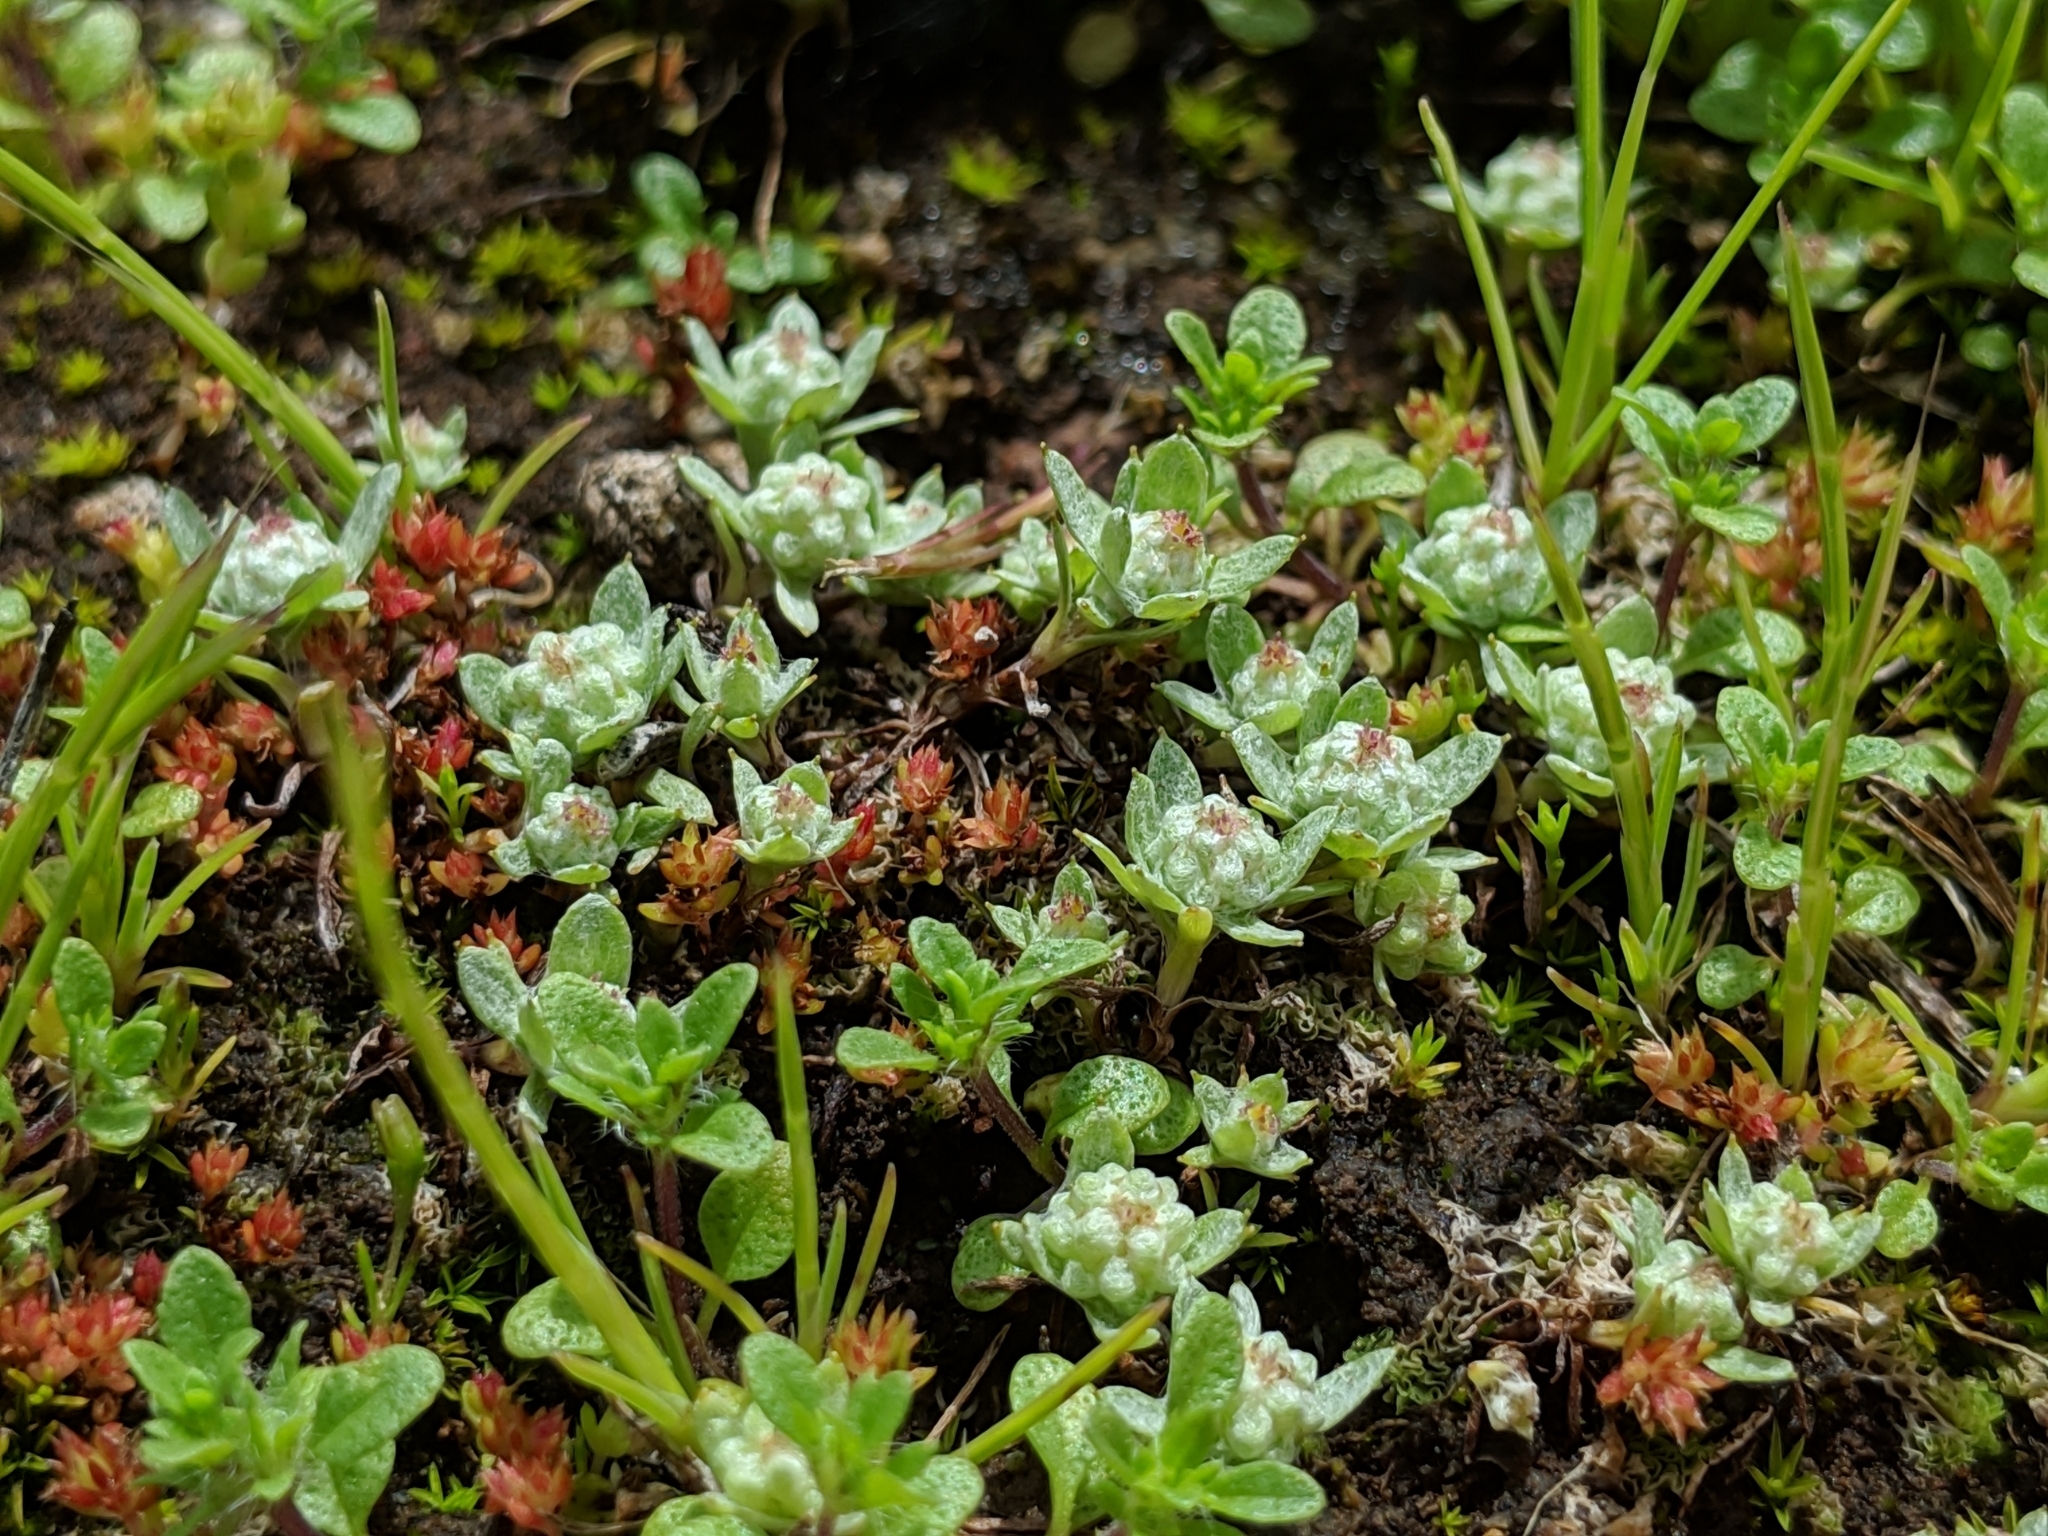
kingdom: Plantae
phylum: Tracheophyta
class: Magnoliopsida
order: Asterales
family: Asteraceae
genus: Psilocarphus
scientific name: Psilocarphus tenellus
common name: Slender woolly-marbles
